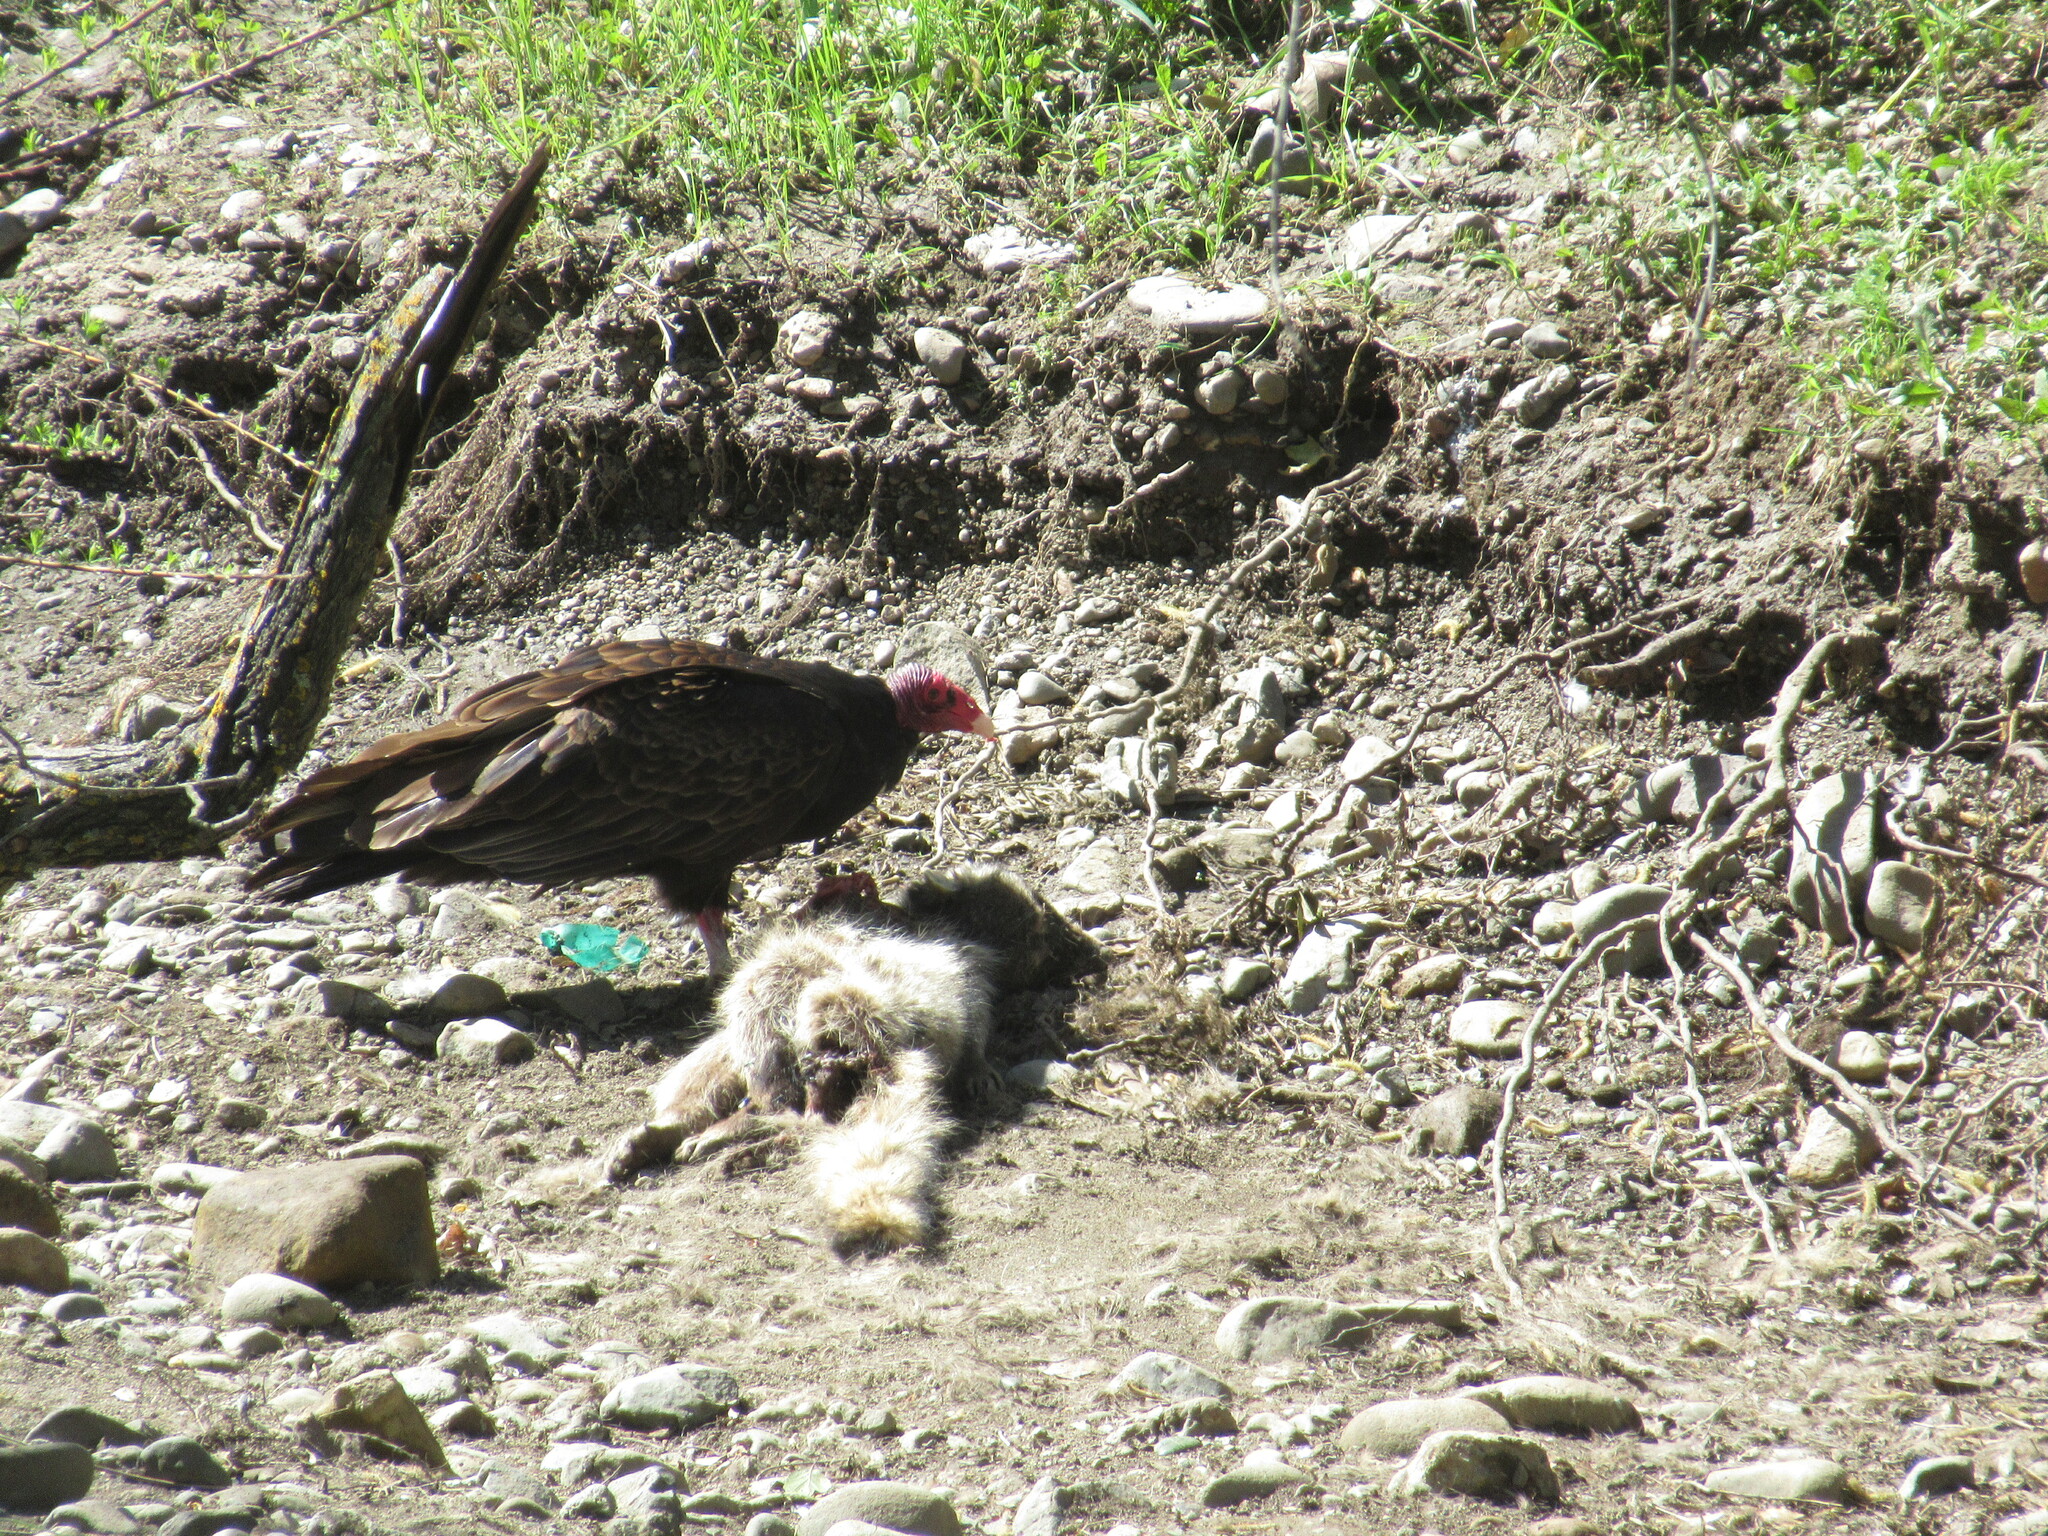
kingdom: Animalia
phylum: Chordata
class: Aves
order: Accipitriformes
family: Cathartidae
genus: Cathartes
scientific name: Cathartes aura
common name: Turkey vulture
